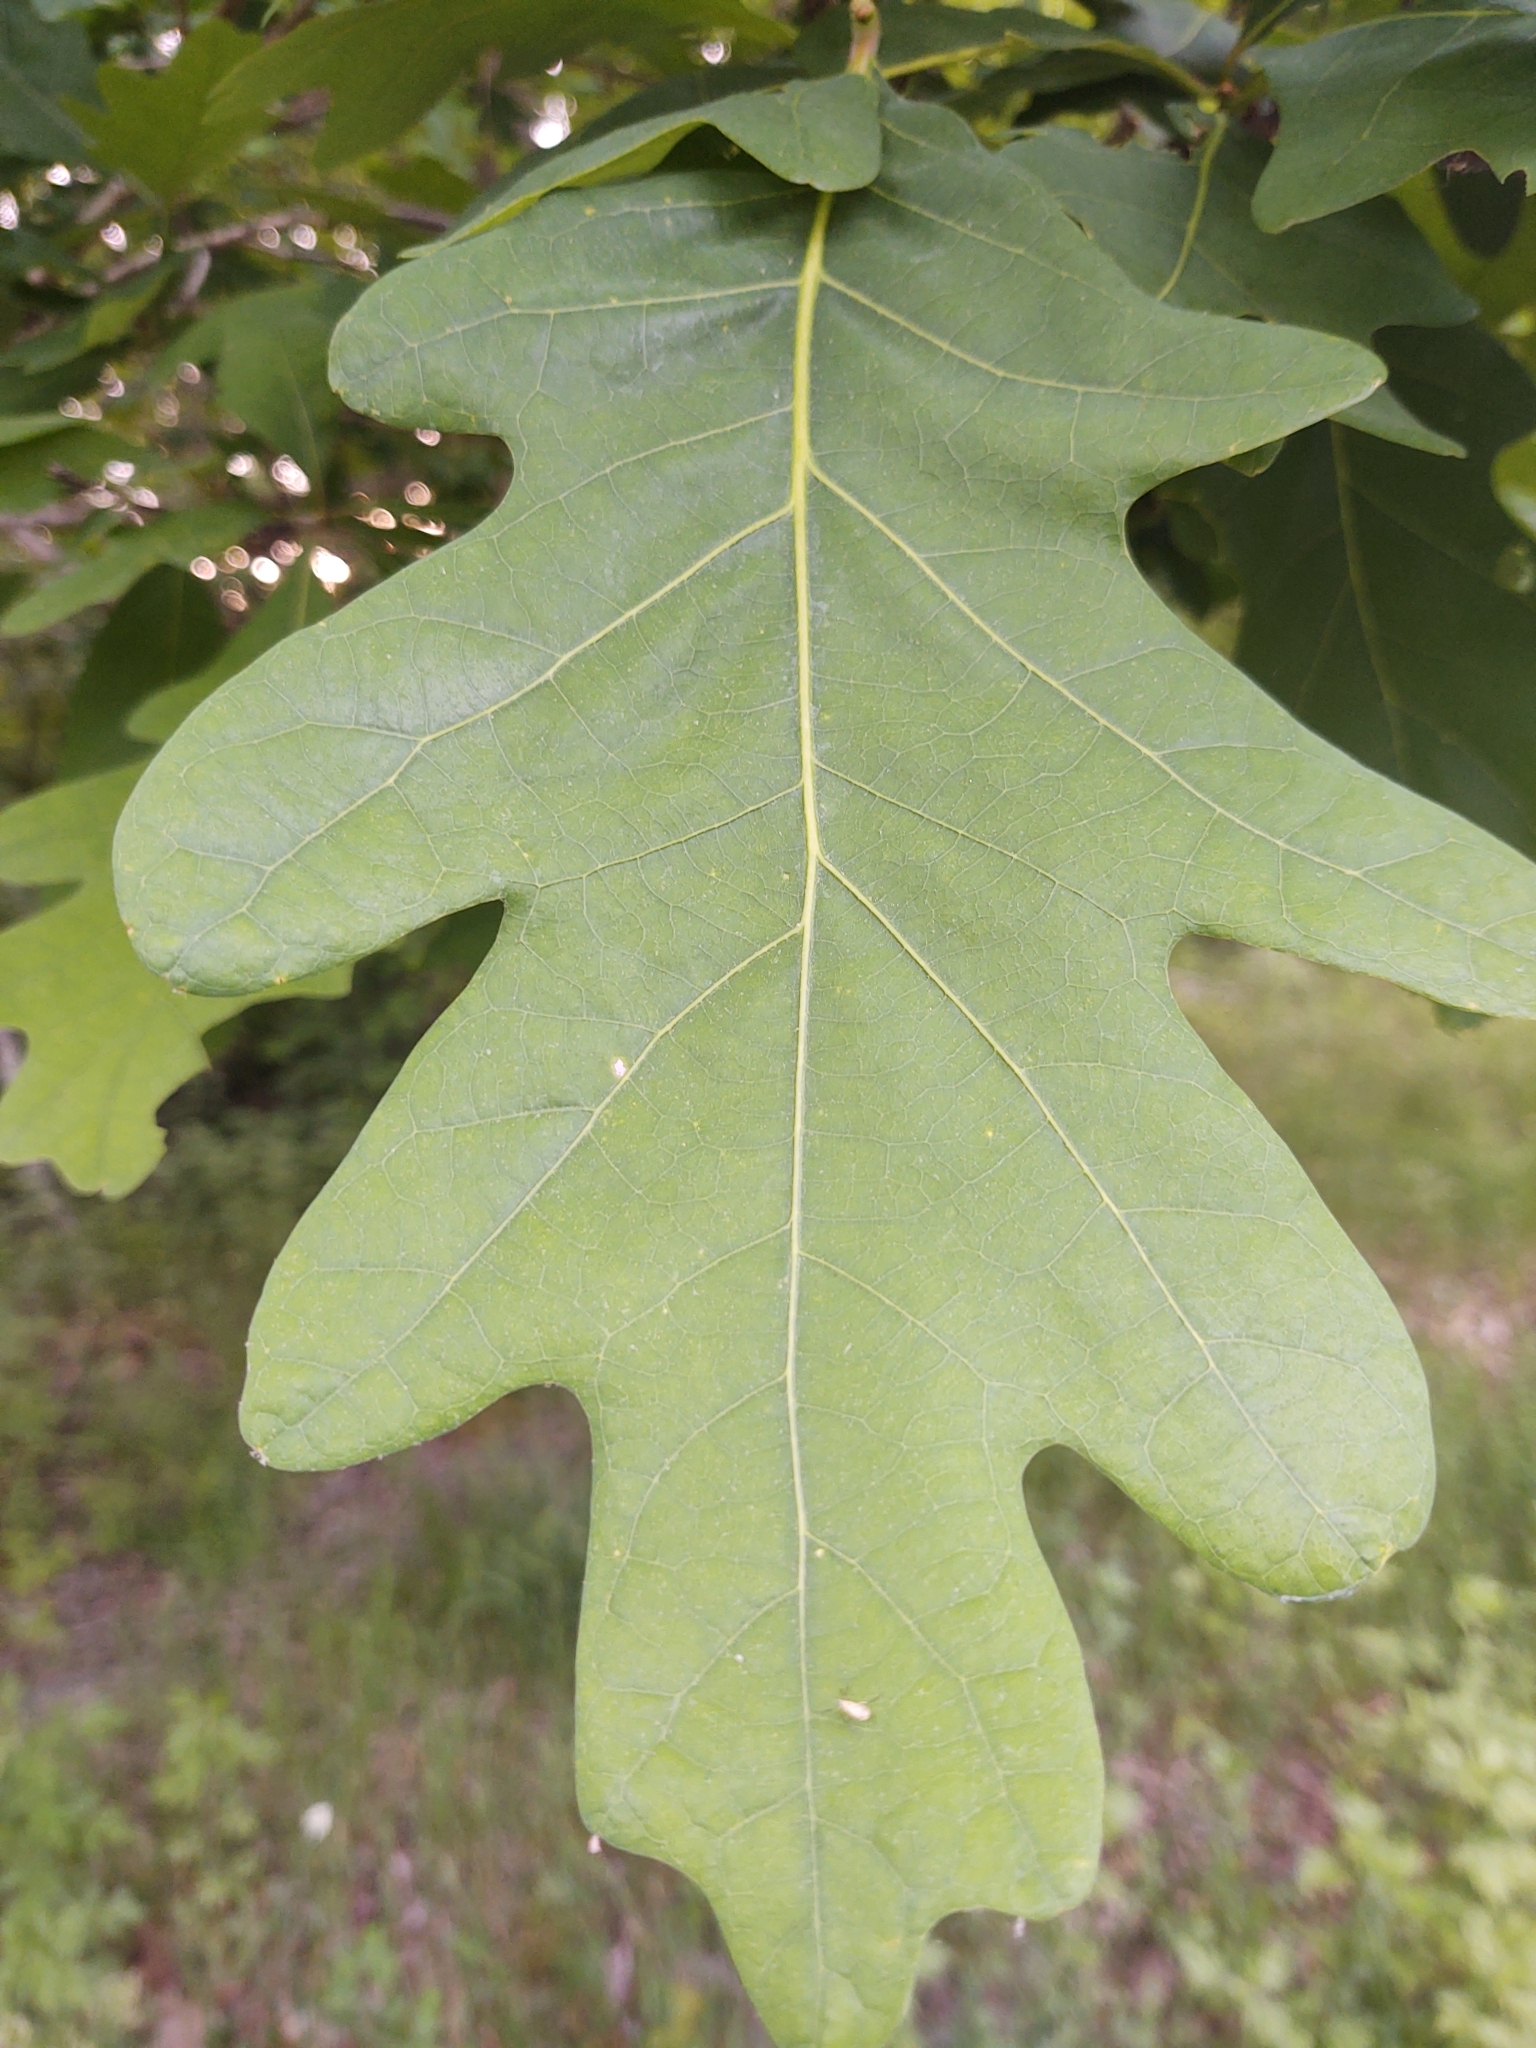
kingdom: Plantae
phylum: Tracheophyta
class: Magnoliopsida
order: Fagales
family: Fagaceae
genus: Quercus
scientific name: Quercus alba
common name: White oak
